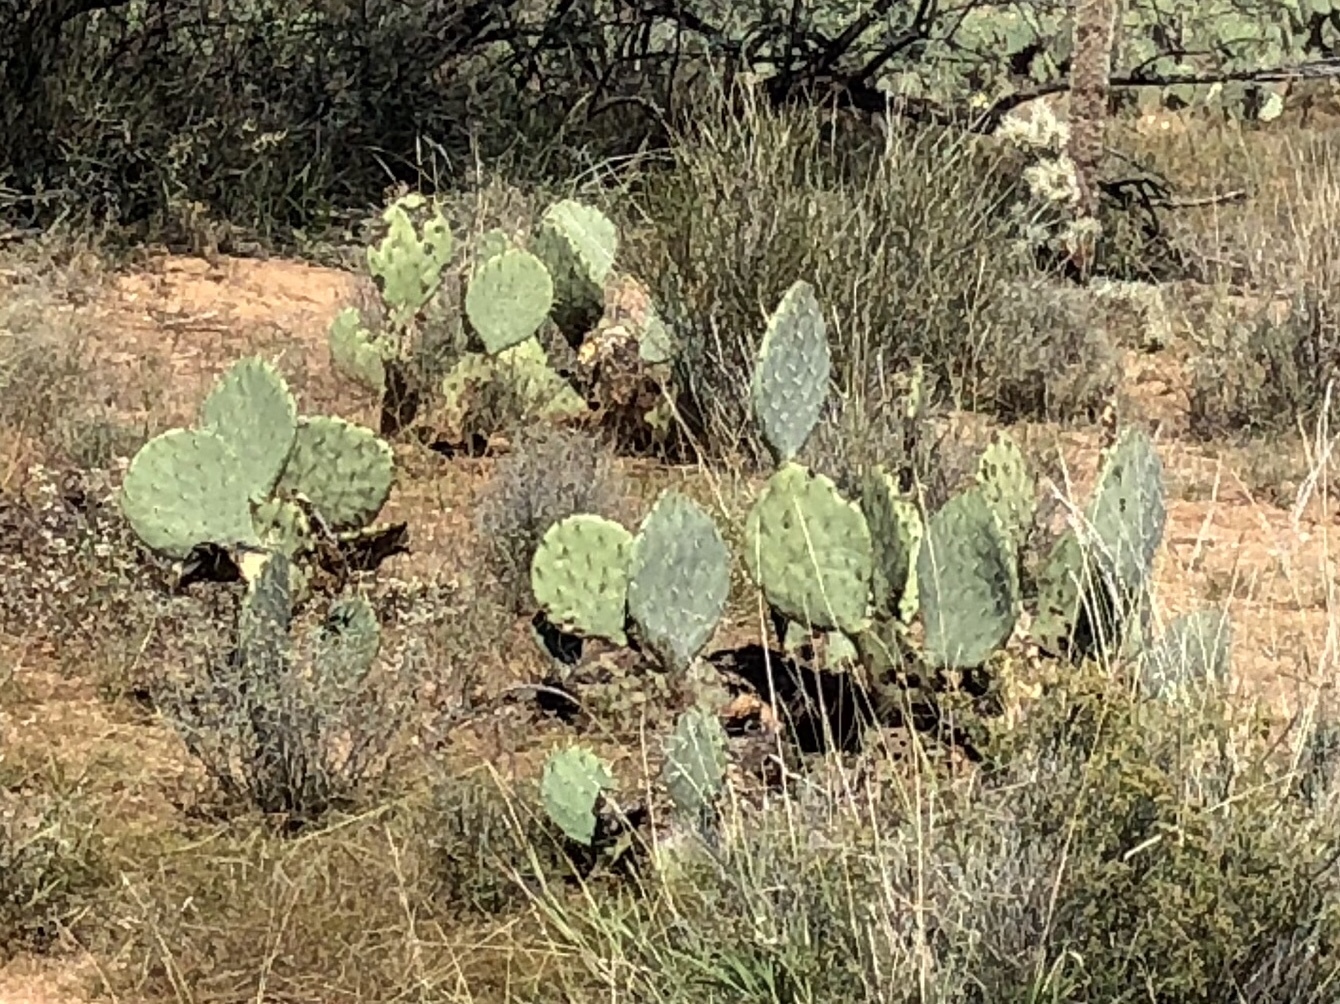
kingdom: Plantae
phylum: Tracheophyta
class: Magnoliopsida
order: Caryophyllales
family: Cactaceae
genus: Opuntia
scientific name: Opuntia engelmannii
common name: Cactus-apple
